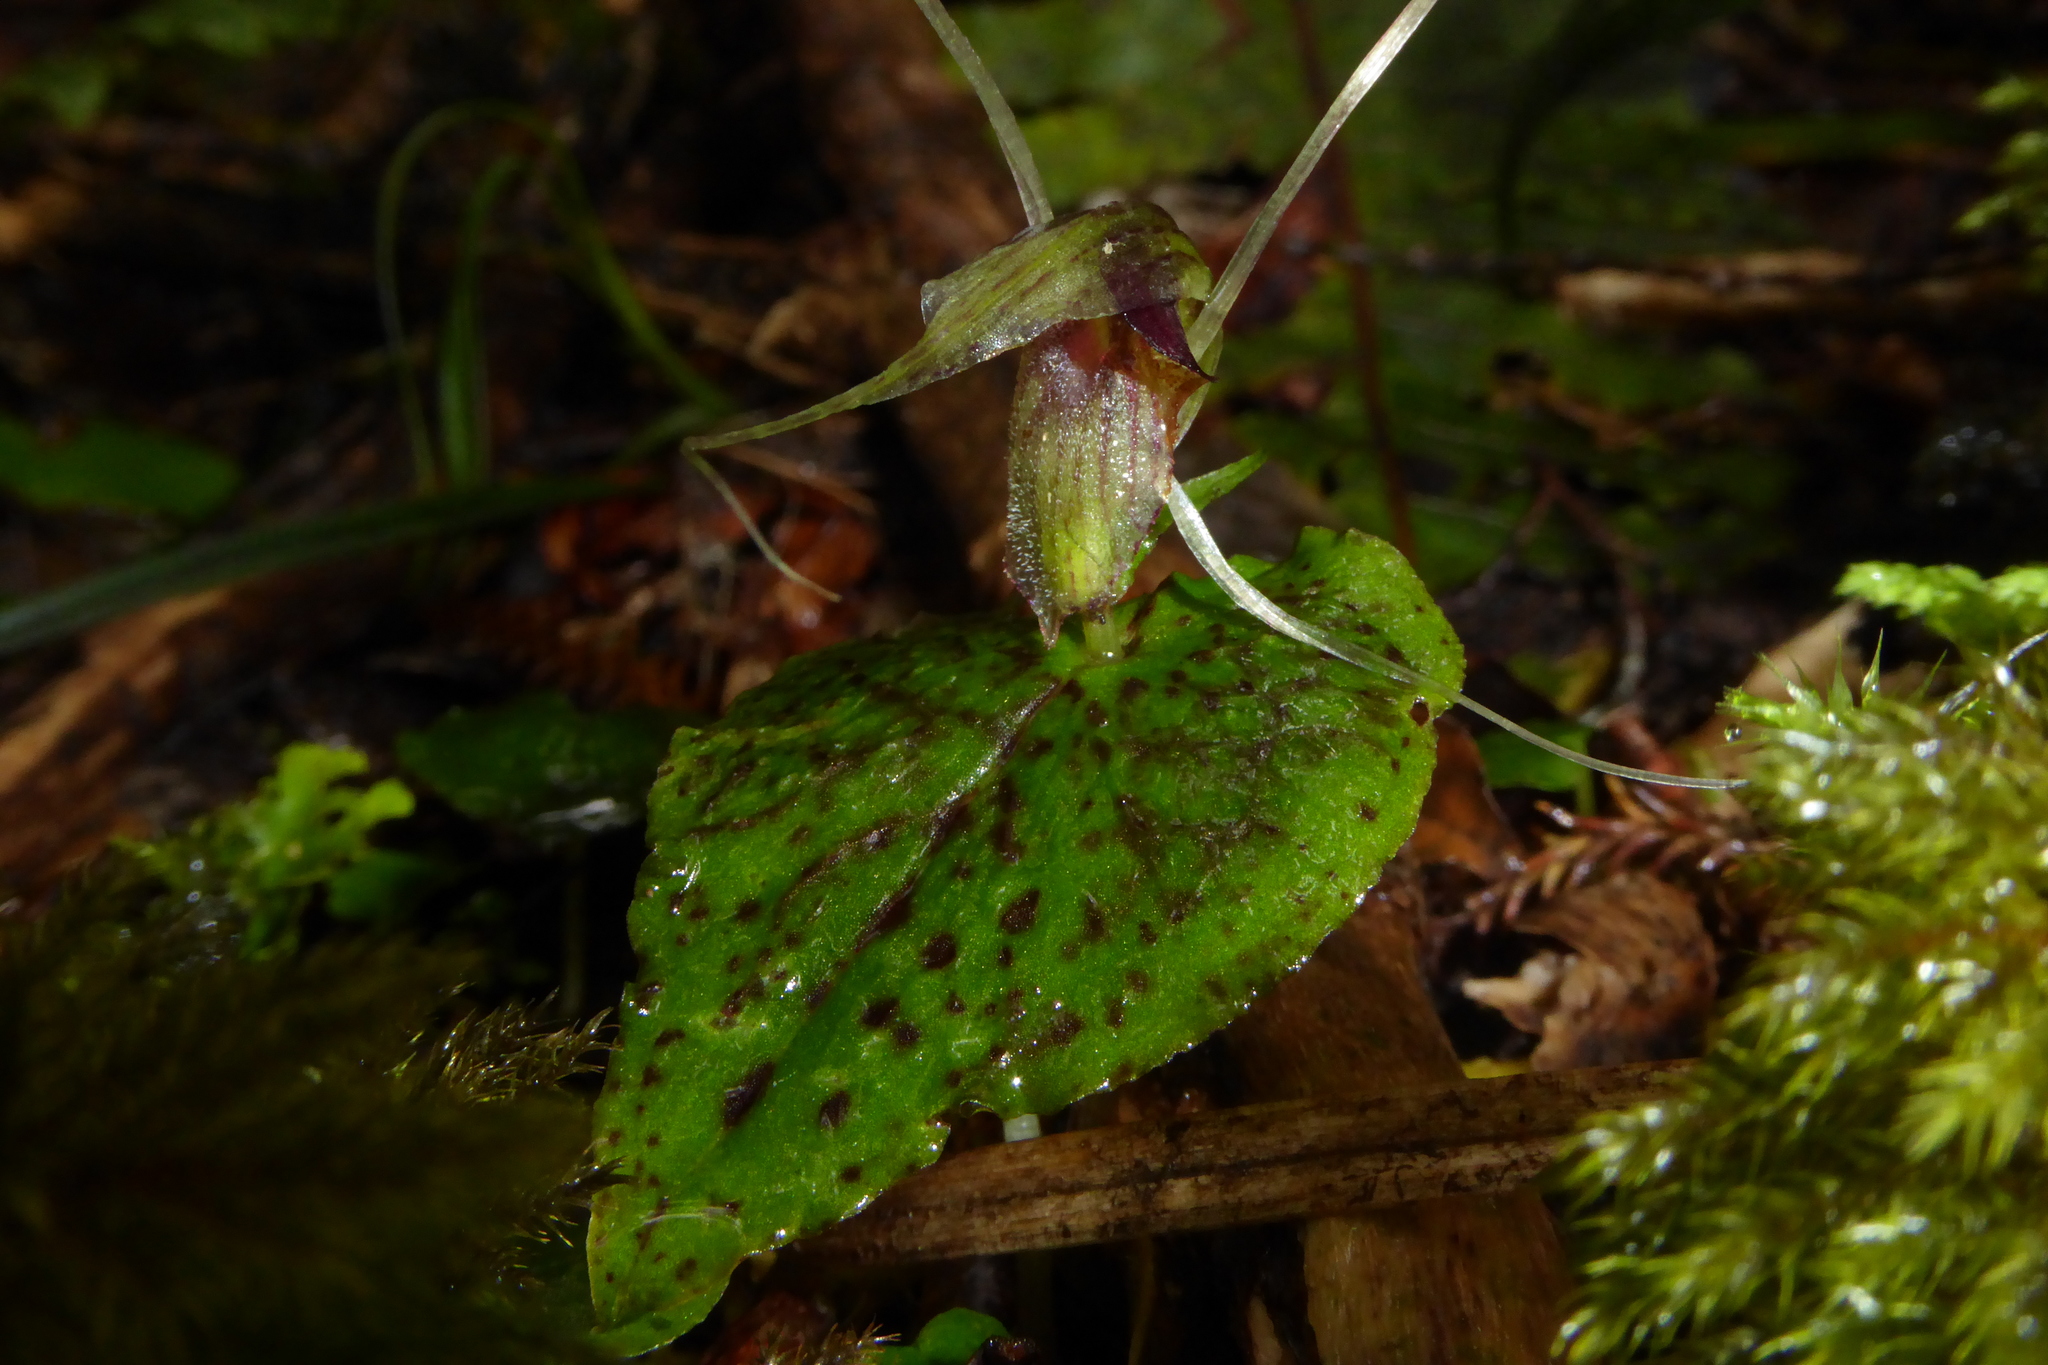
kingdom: Plantae
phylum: Tracheophyta
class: Liliopsida
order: Asparagales
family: Orchidaceae
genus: Corybas
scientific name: Corybas acuminatus
